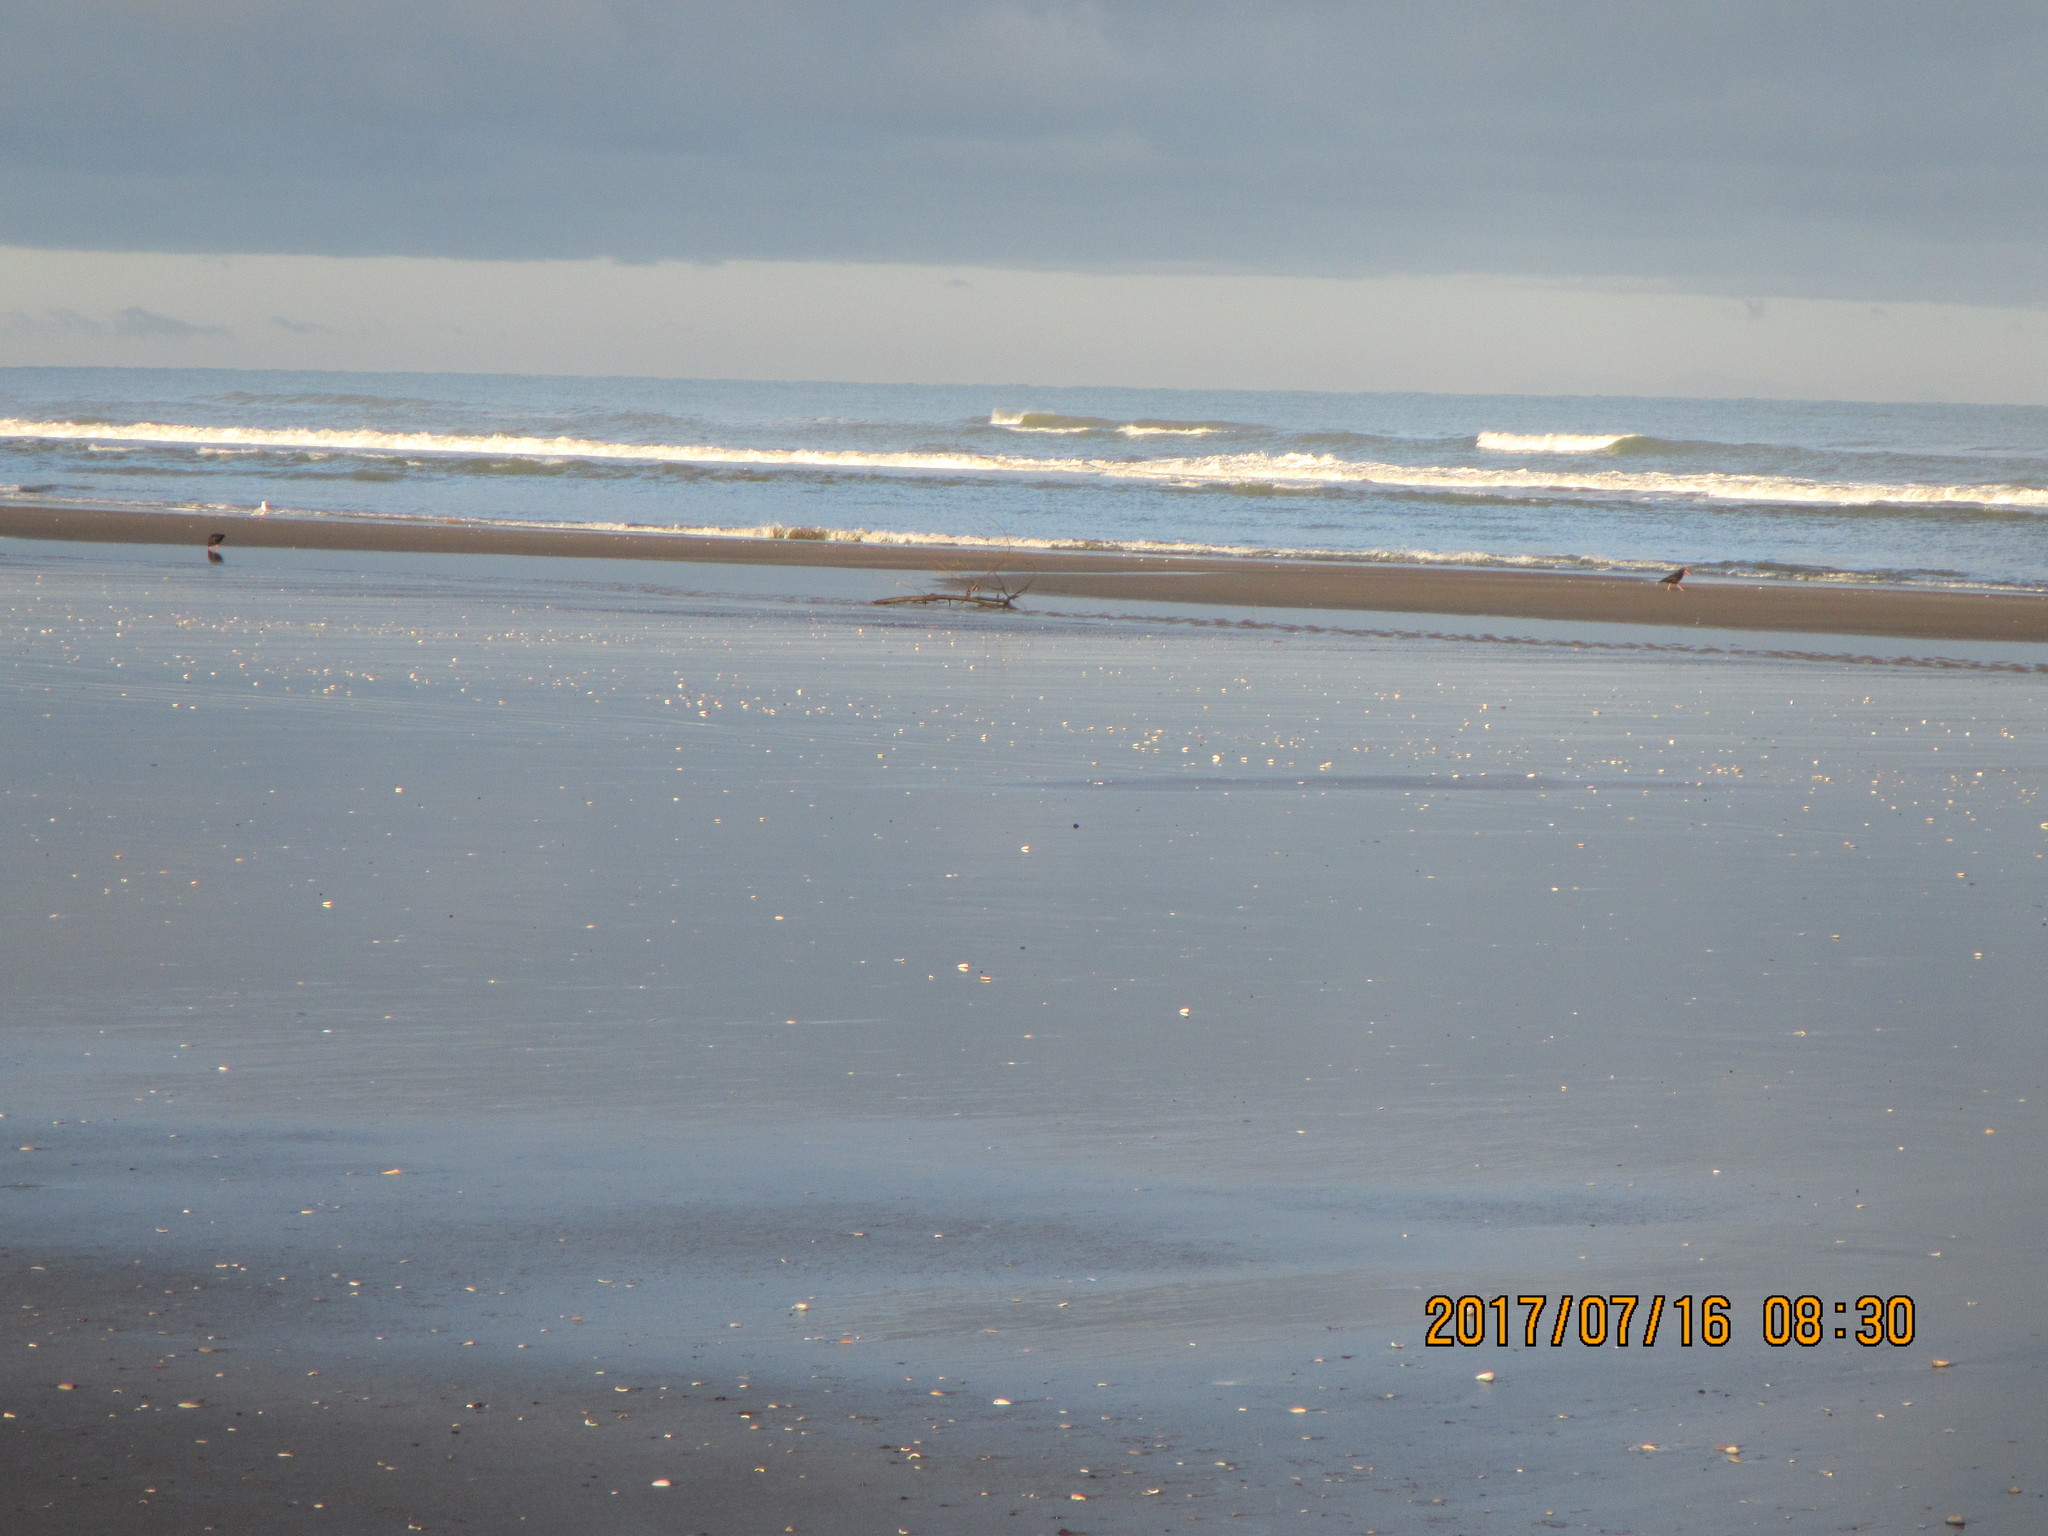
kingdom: Animalia
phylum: Chordata
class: Aves
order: Charadriiformes
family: Haematopodidae
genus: Haematopus
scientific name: Haematopus unicolor
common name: Variable oystercatcher
